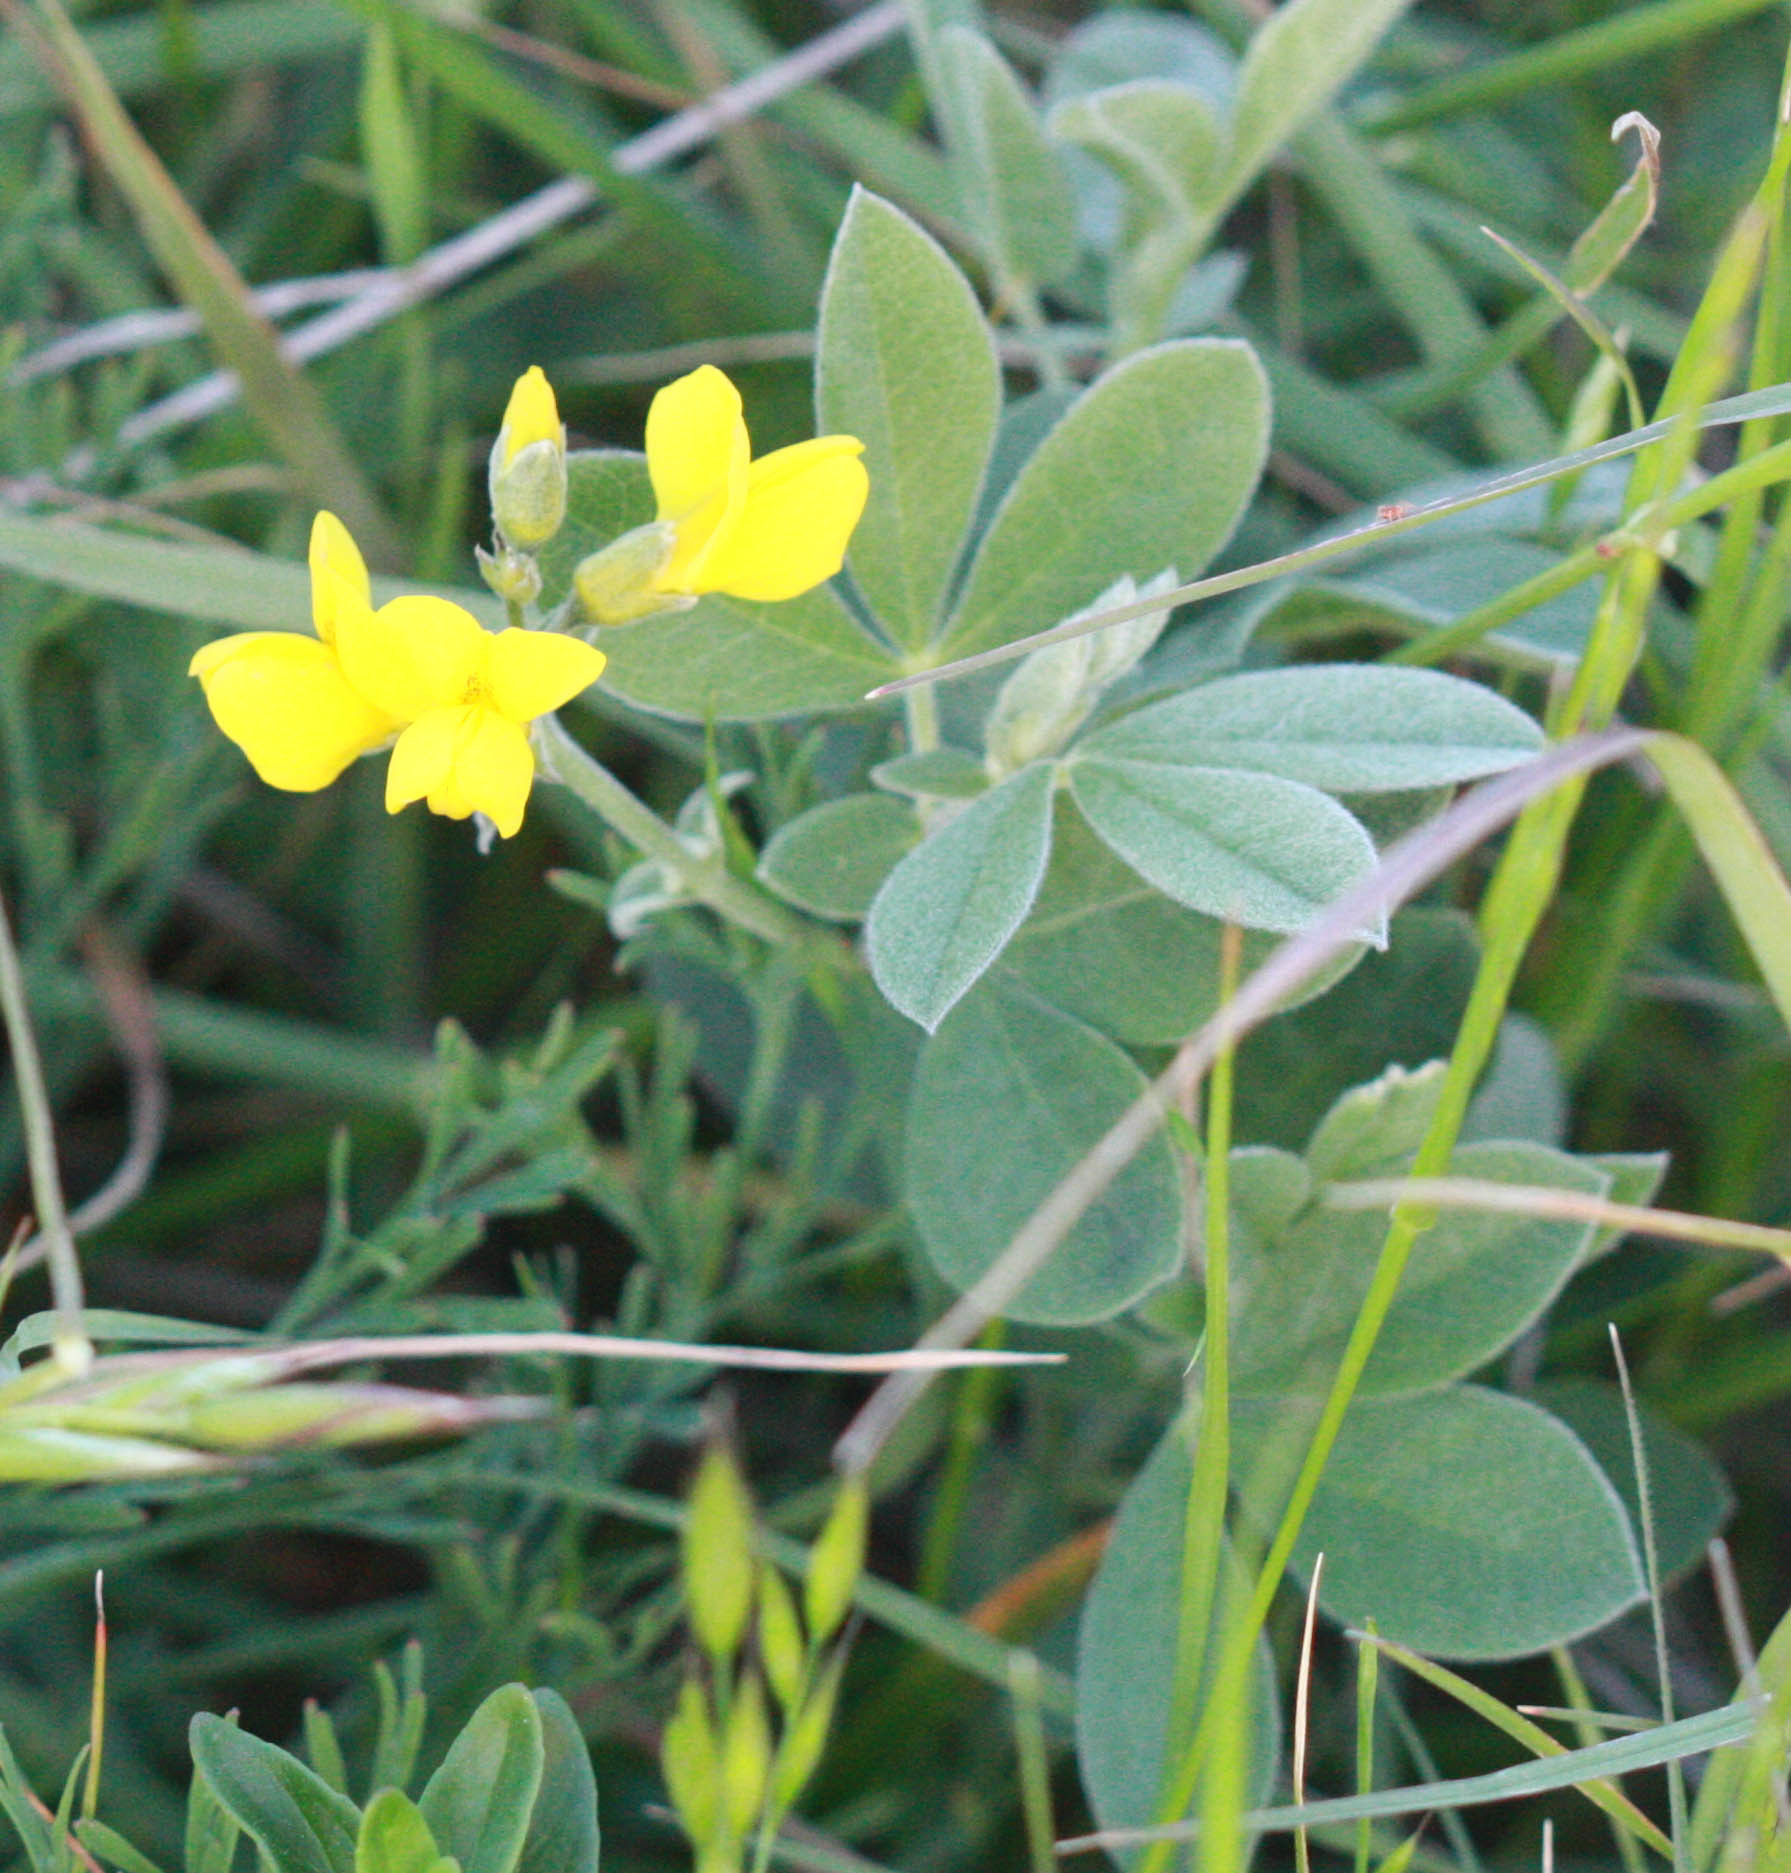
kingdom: Plantae
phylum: Tracheophyta
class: Magnoliopsida
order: Fabales
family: Fabaceae
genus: Thermopsis
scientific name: Thermopsis californica
